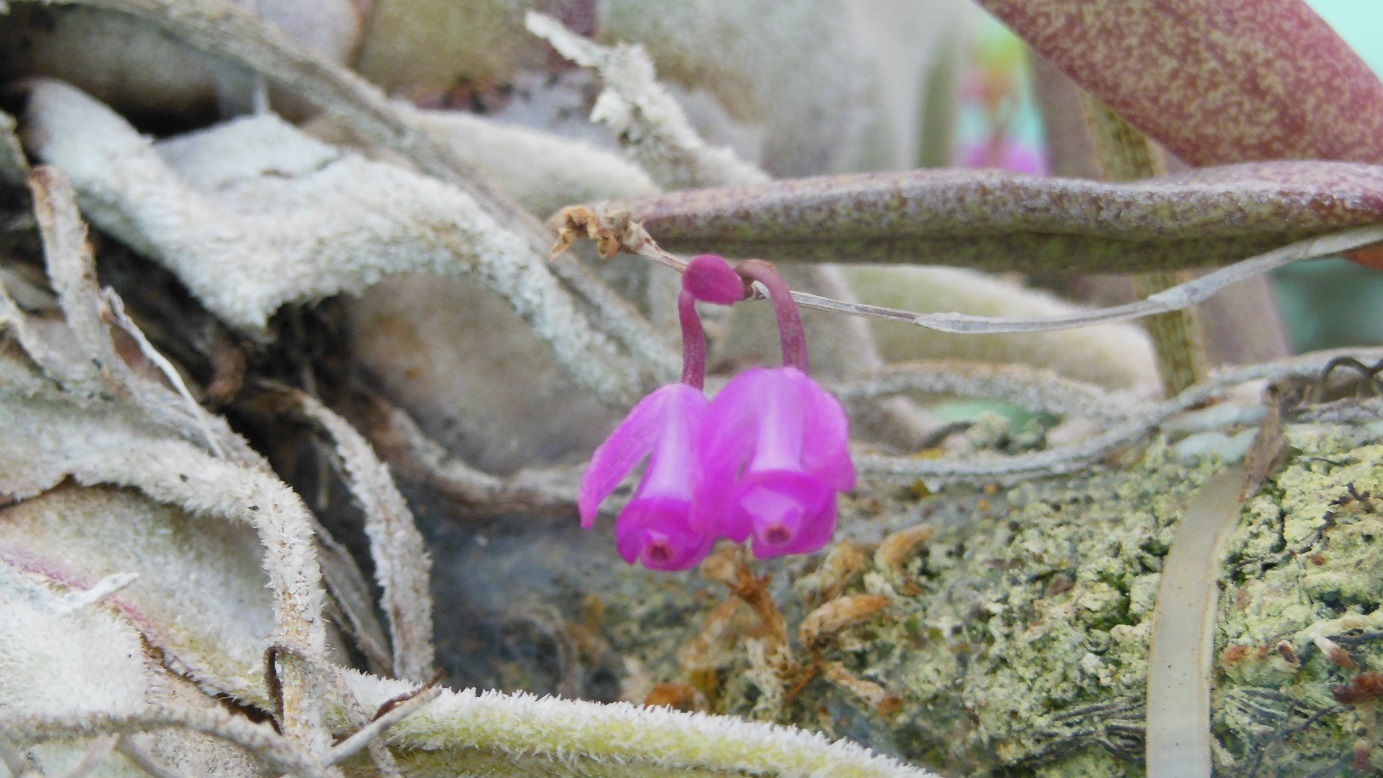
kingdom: Plantae
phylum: Tracheophyta
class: Liliopsida
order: Asparagales
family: Orchidaceae
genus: Domingoa
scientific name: Domingoa purpurea
